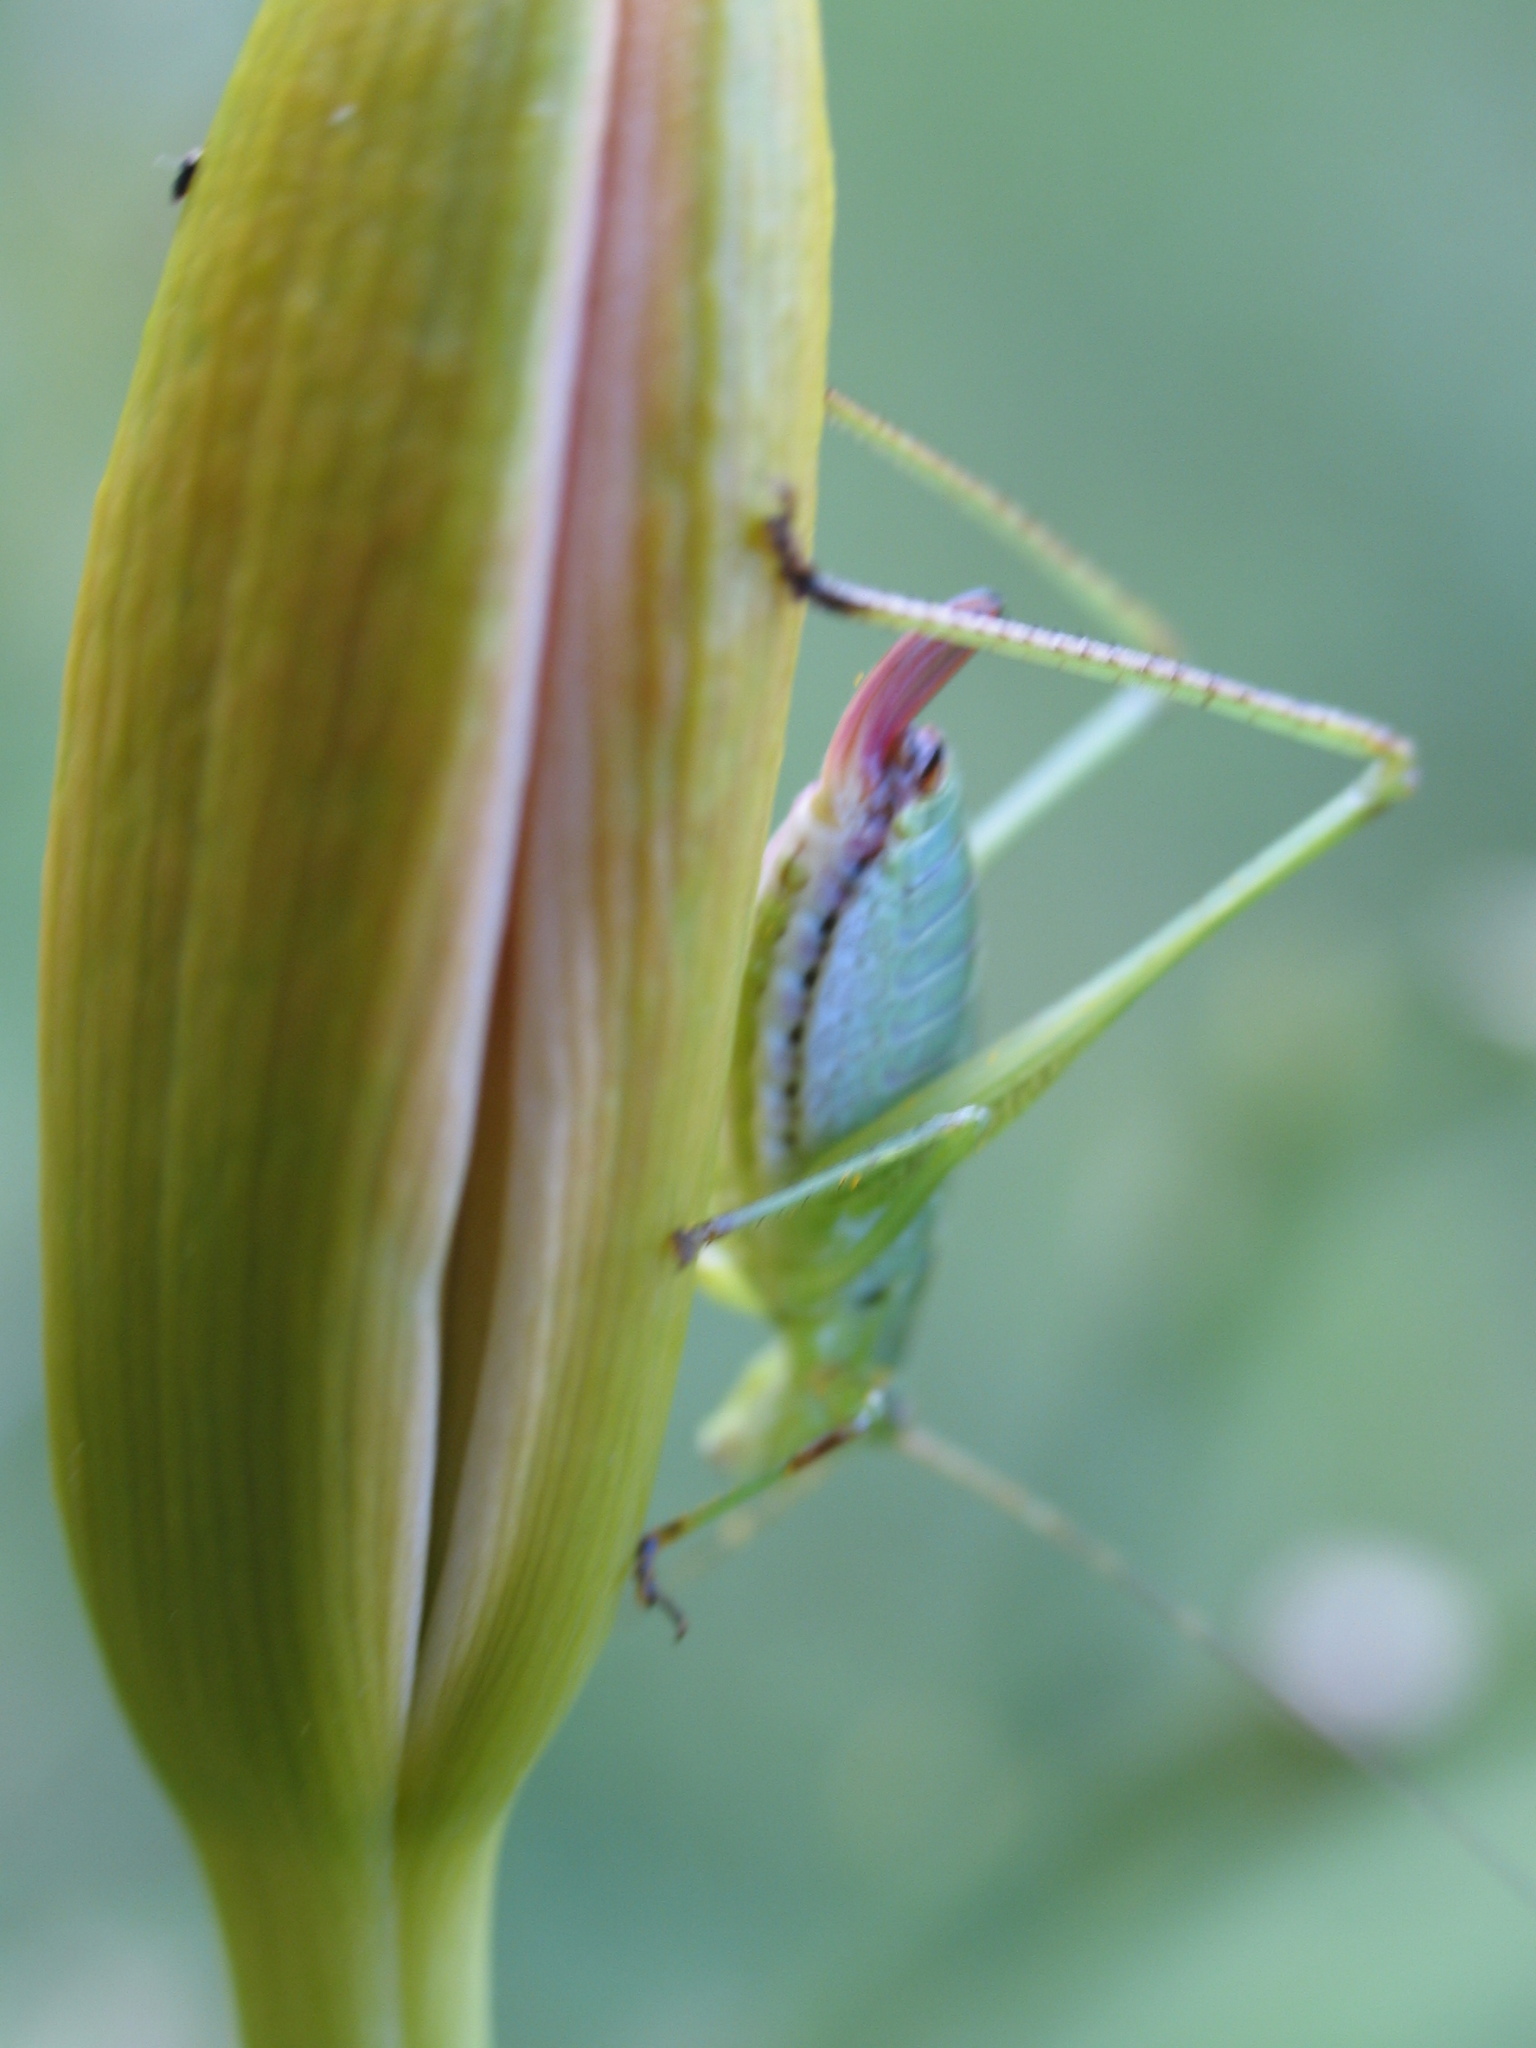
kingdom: Animalia
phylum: Arthropoda
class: Insecta
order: Orthoptera
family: Tettigoniidae
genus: Scudderia
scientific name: Scudderia furcata
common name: Fork-tailed bush katydid
